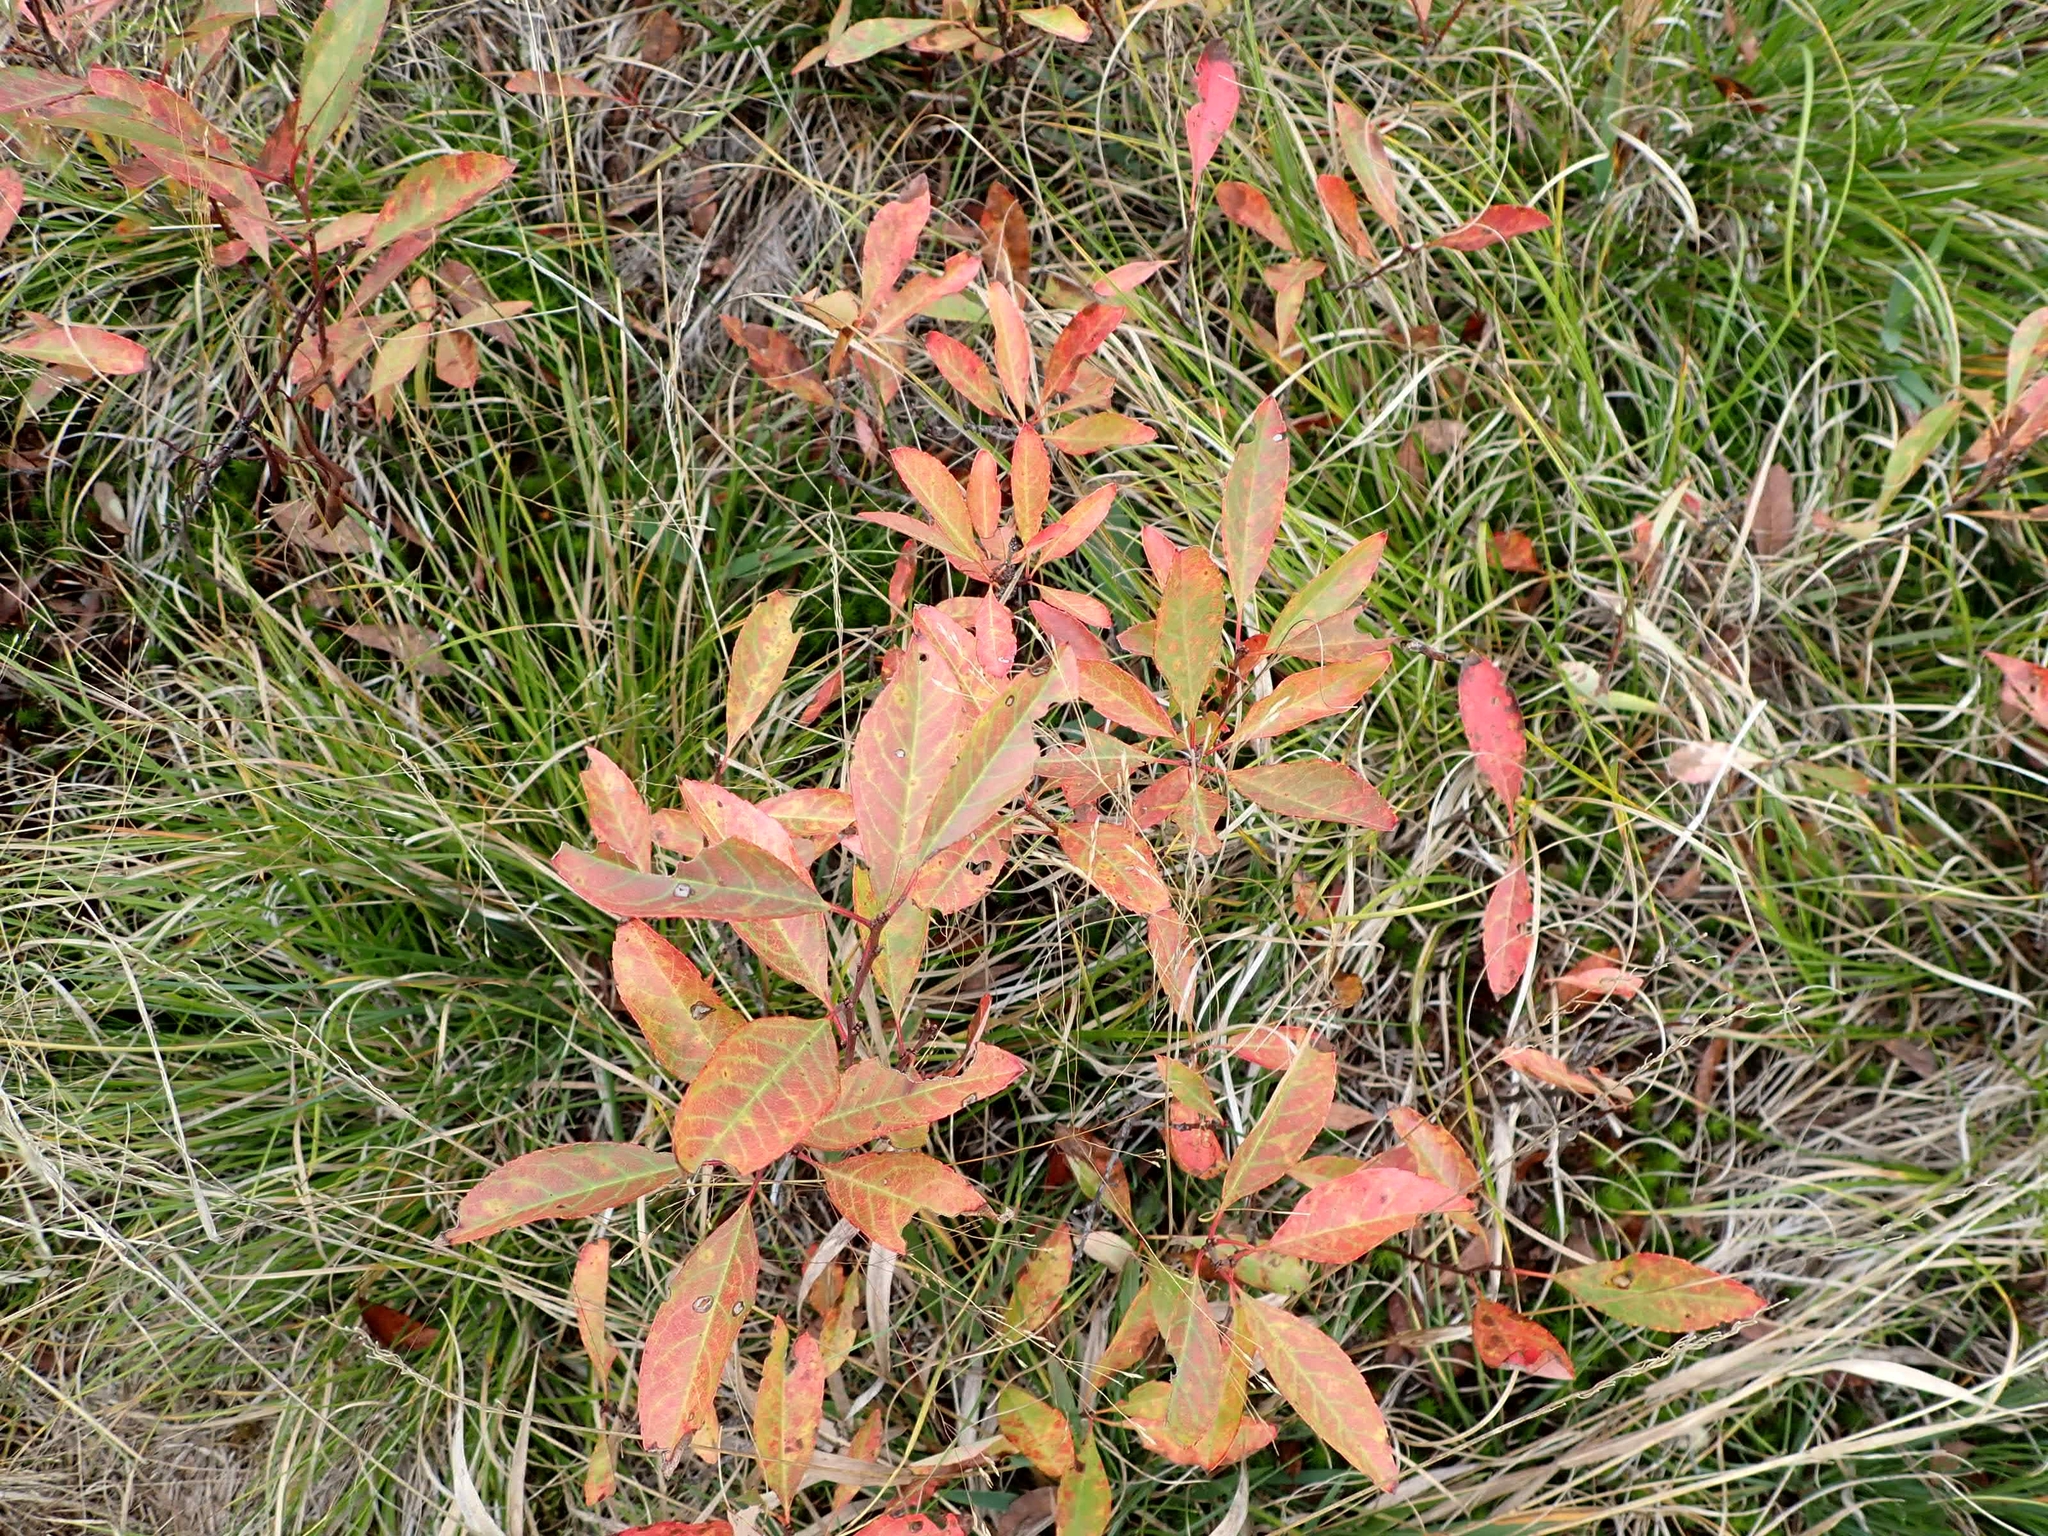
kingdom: Plantae
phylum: Tracheophyta
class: Magnoliopsida
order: Rosales
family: Rosaceae
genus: Prunus
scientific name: Prunus pumila
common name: Dwarf cherry
